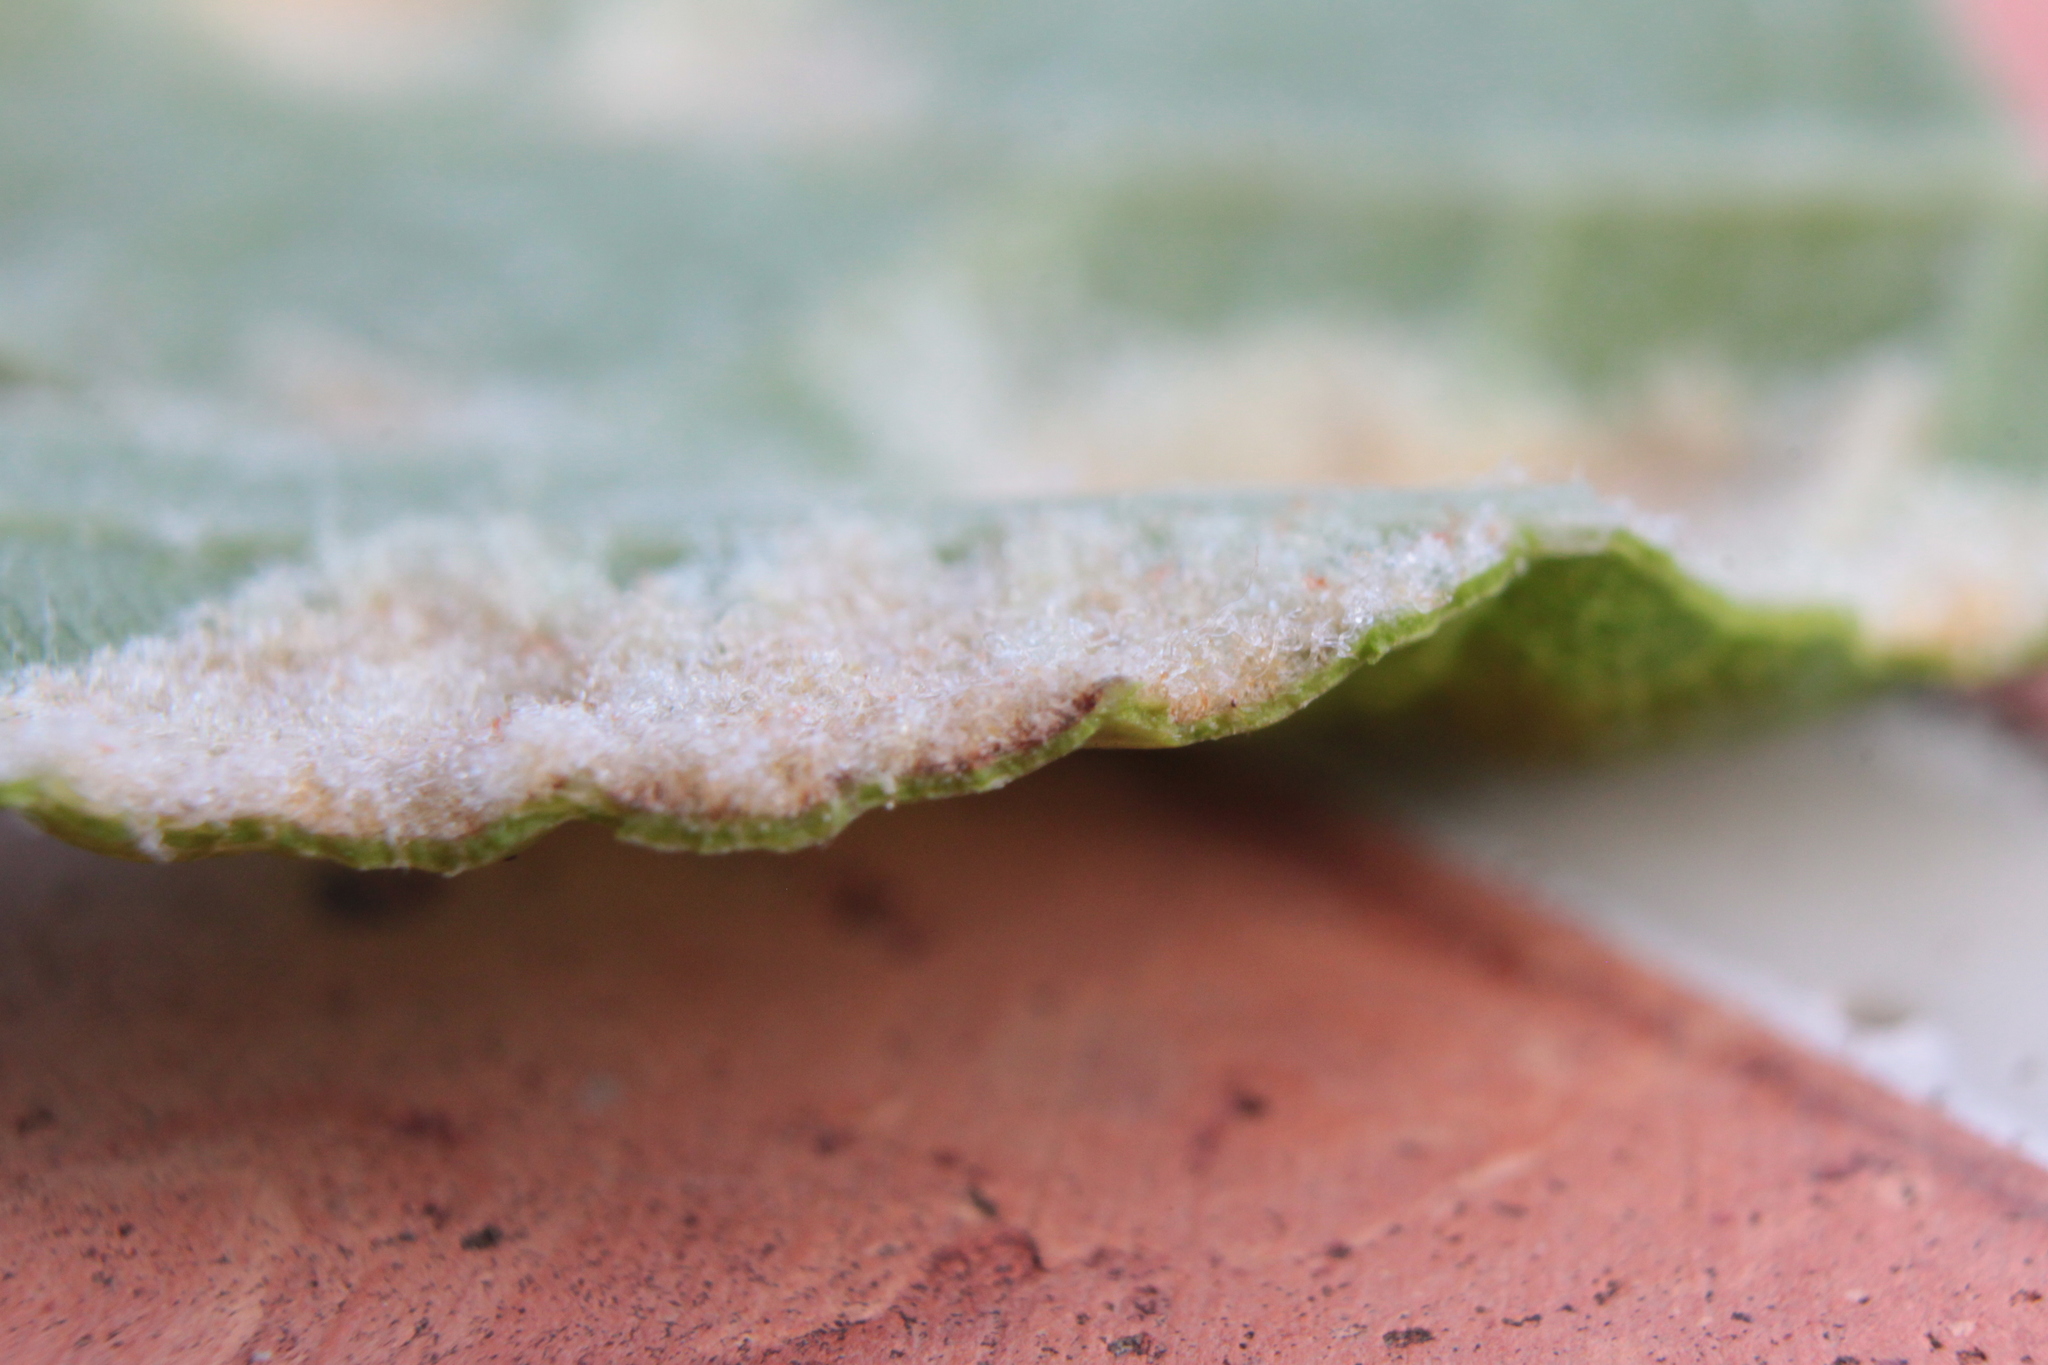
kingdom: Animalia
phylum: Arthropoda
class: Arachnida
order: Trombidiformes
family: Eriophyidae
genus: Colomerus
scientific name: Colomerus vitis
